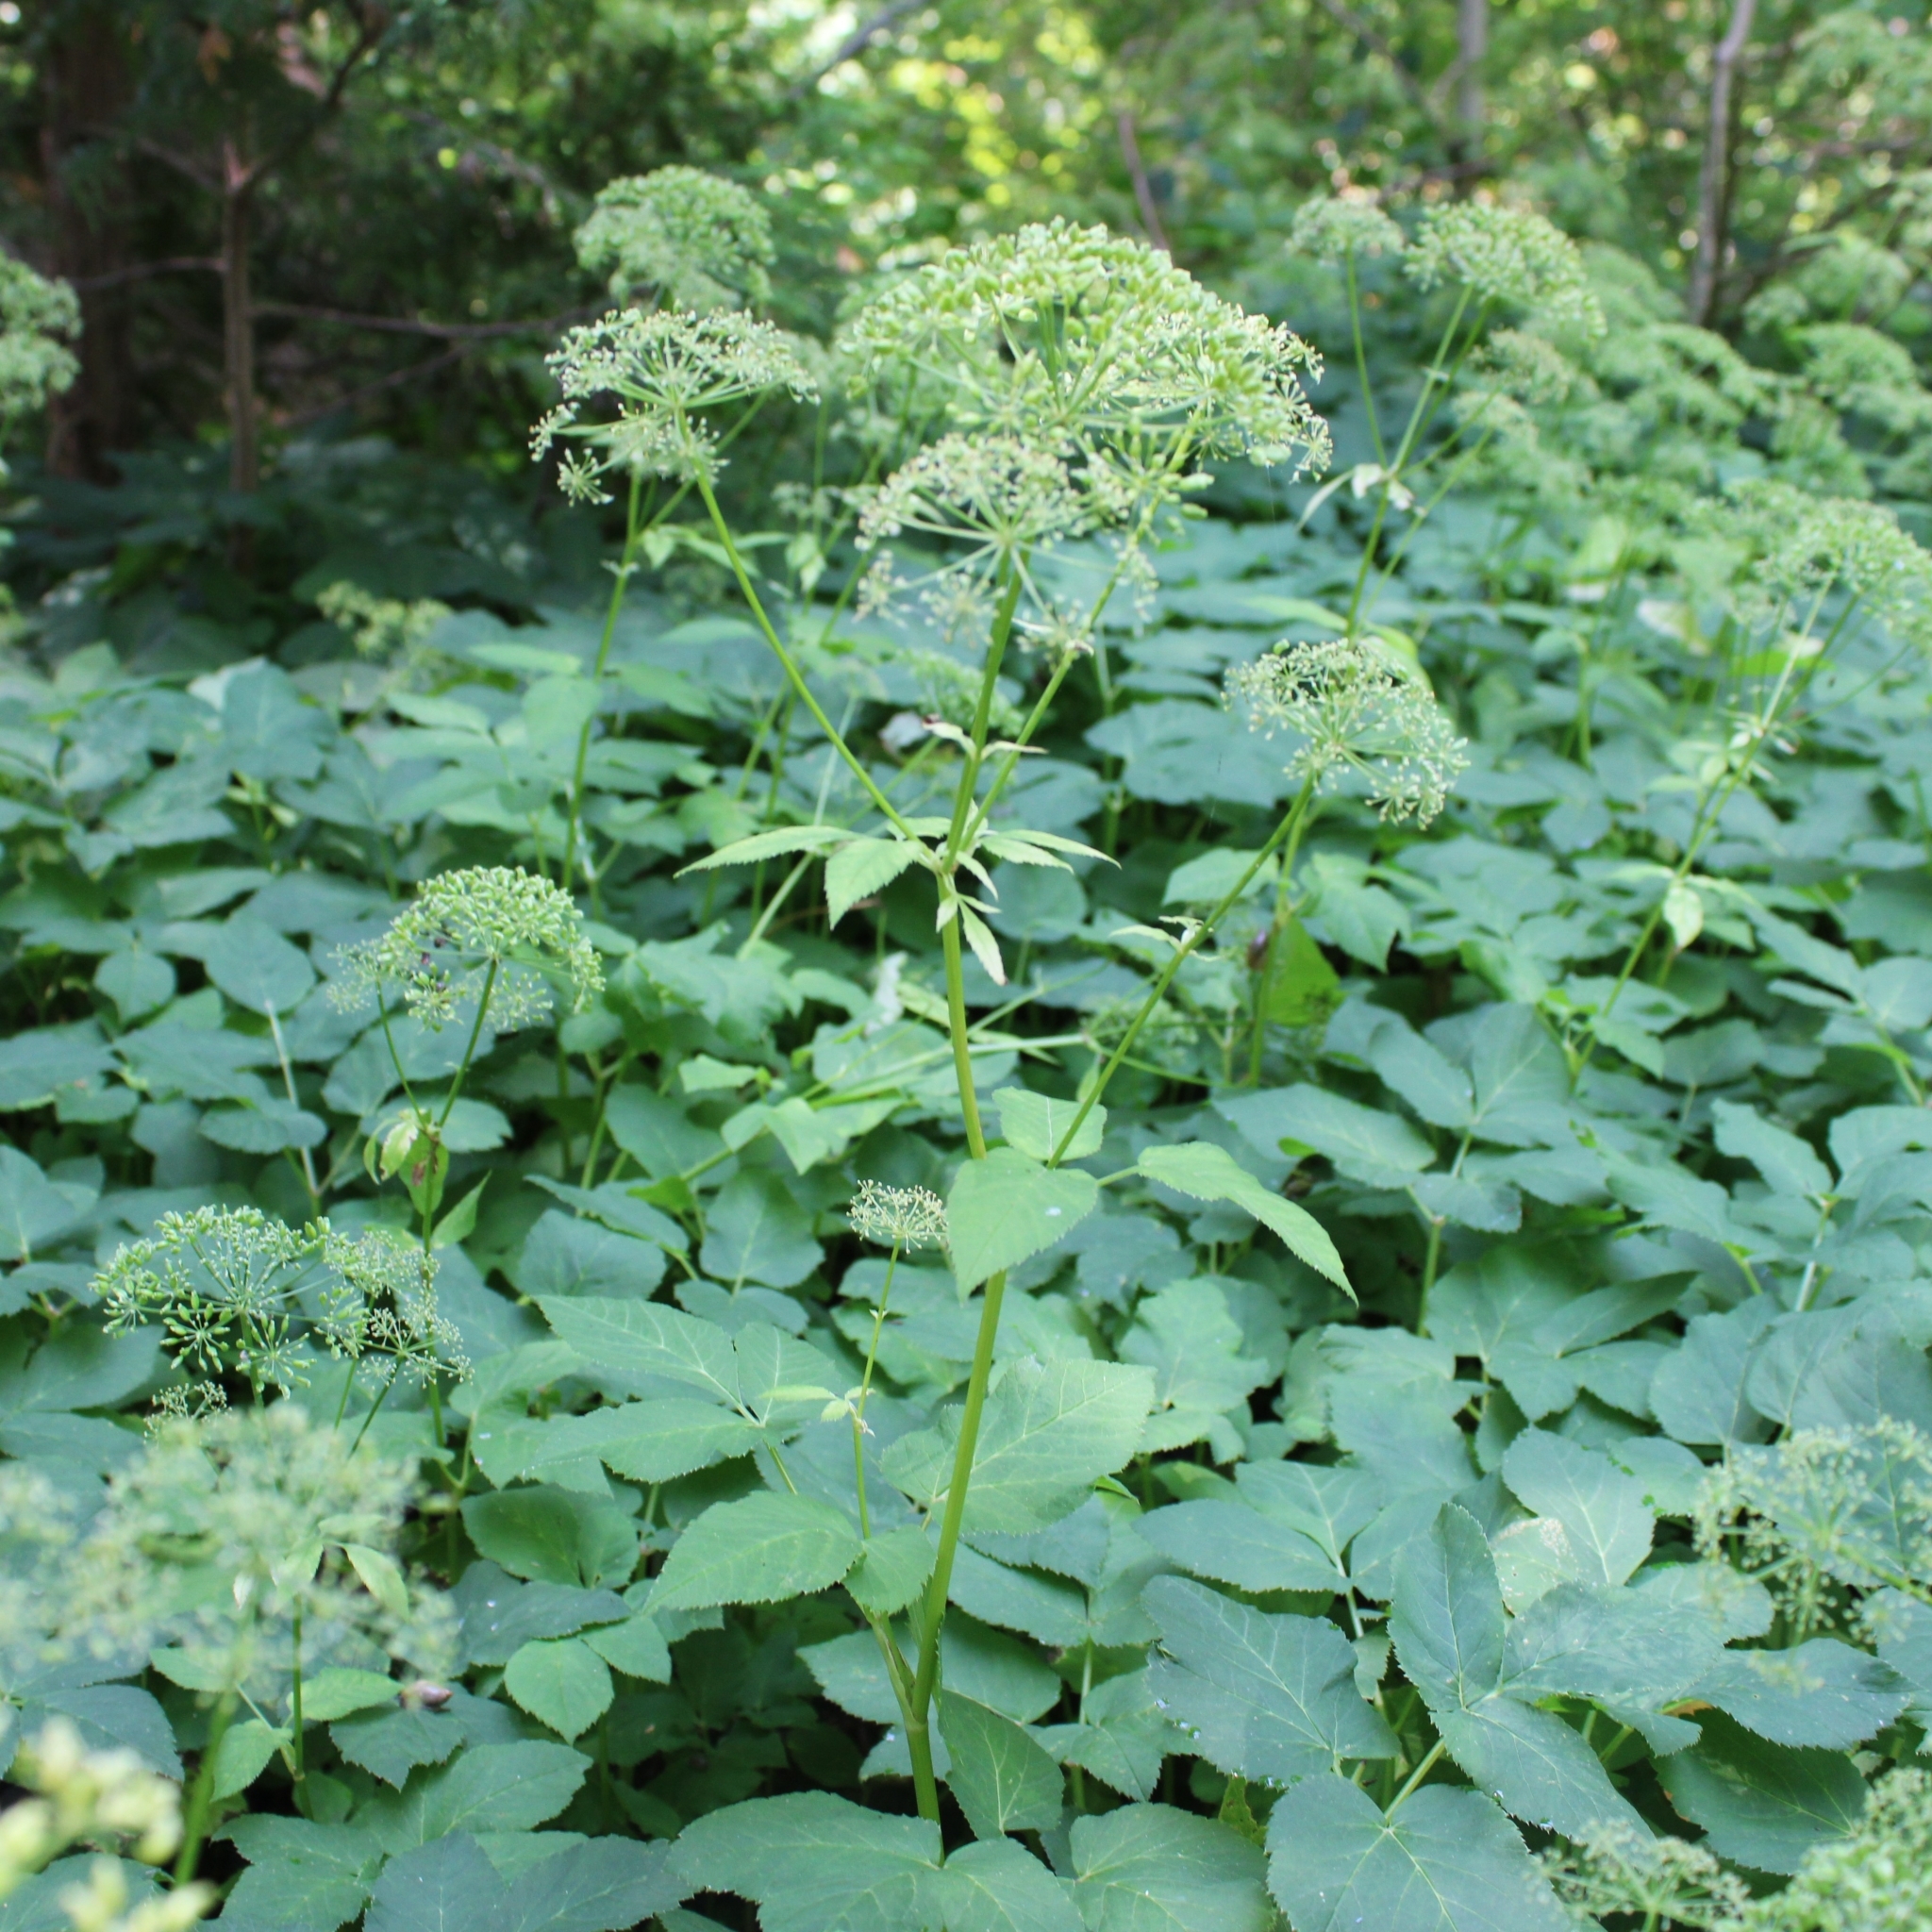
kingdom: Plantae
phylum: Tracheophyta
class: Magnoliopsida
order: Apiales
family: Apiaceae
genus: Aegopodium
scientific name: Aegopodium podagraria
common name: Ground-elder
